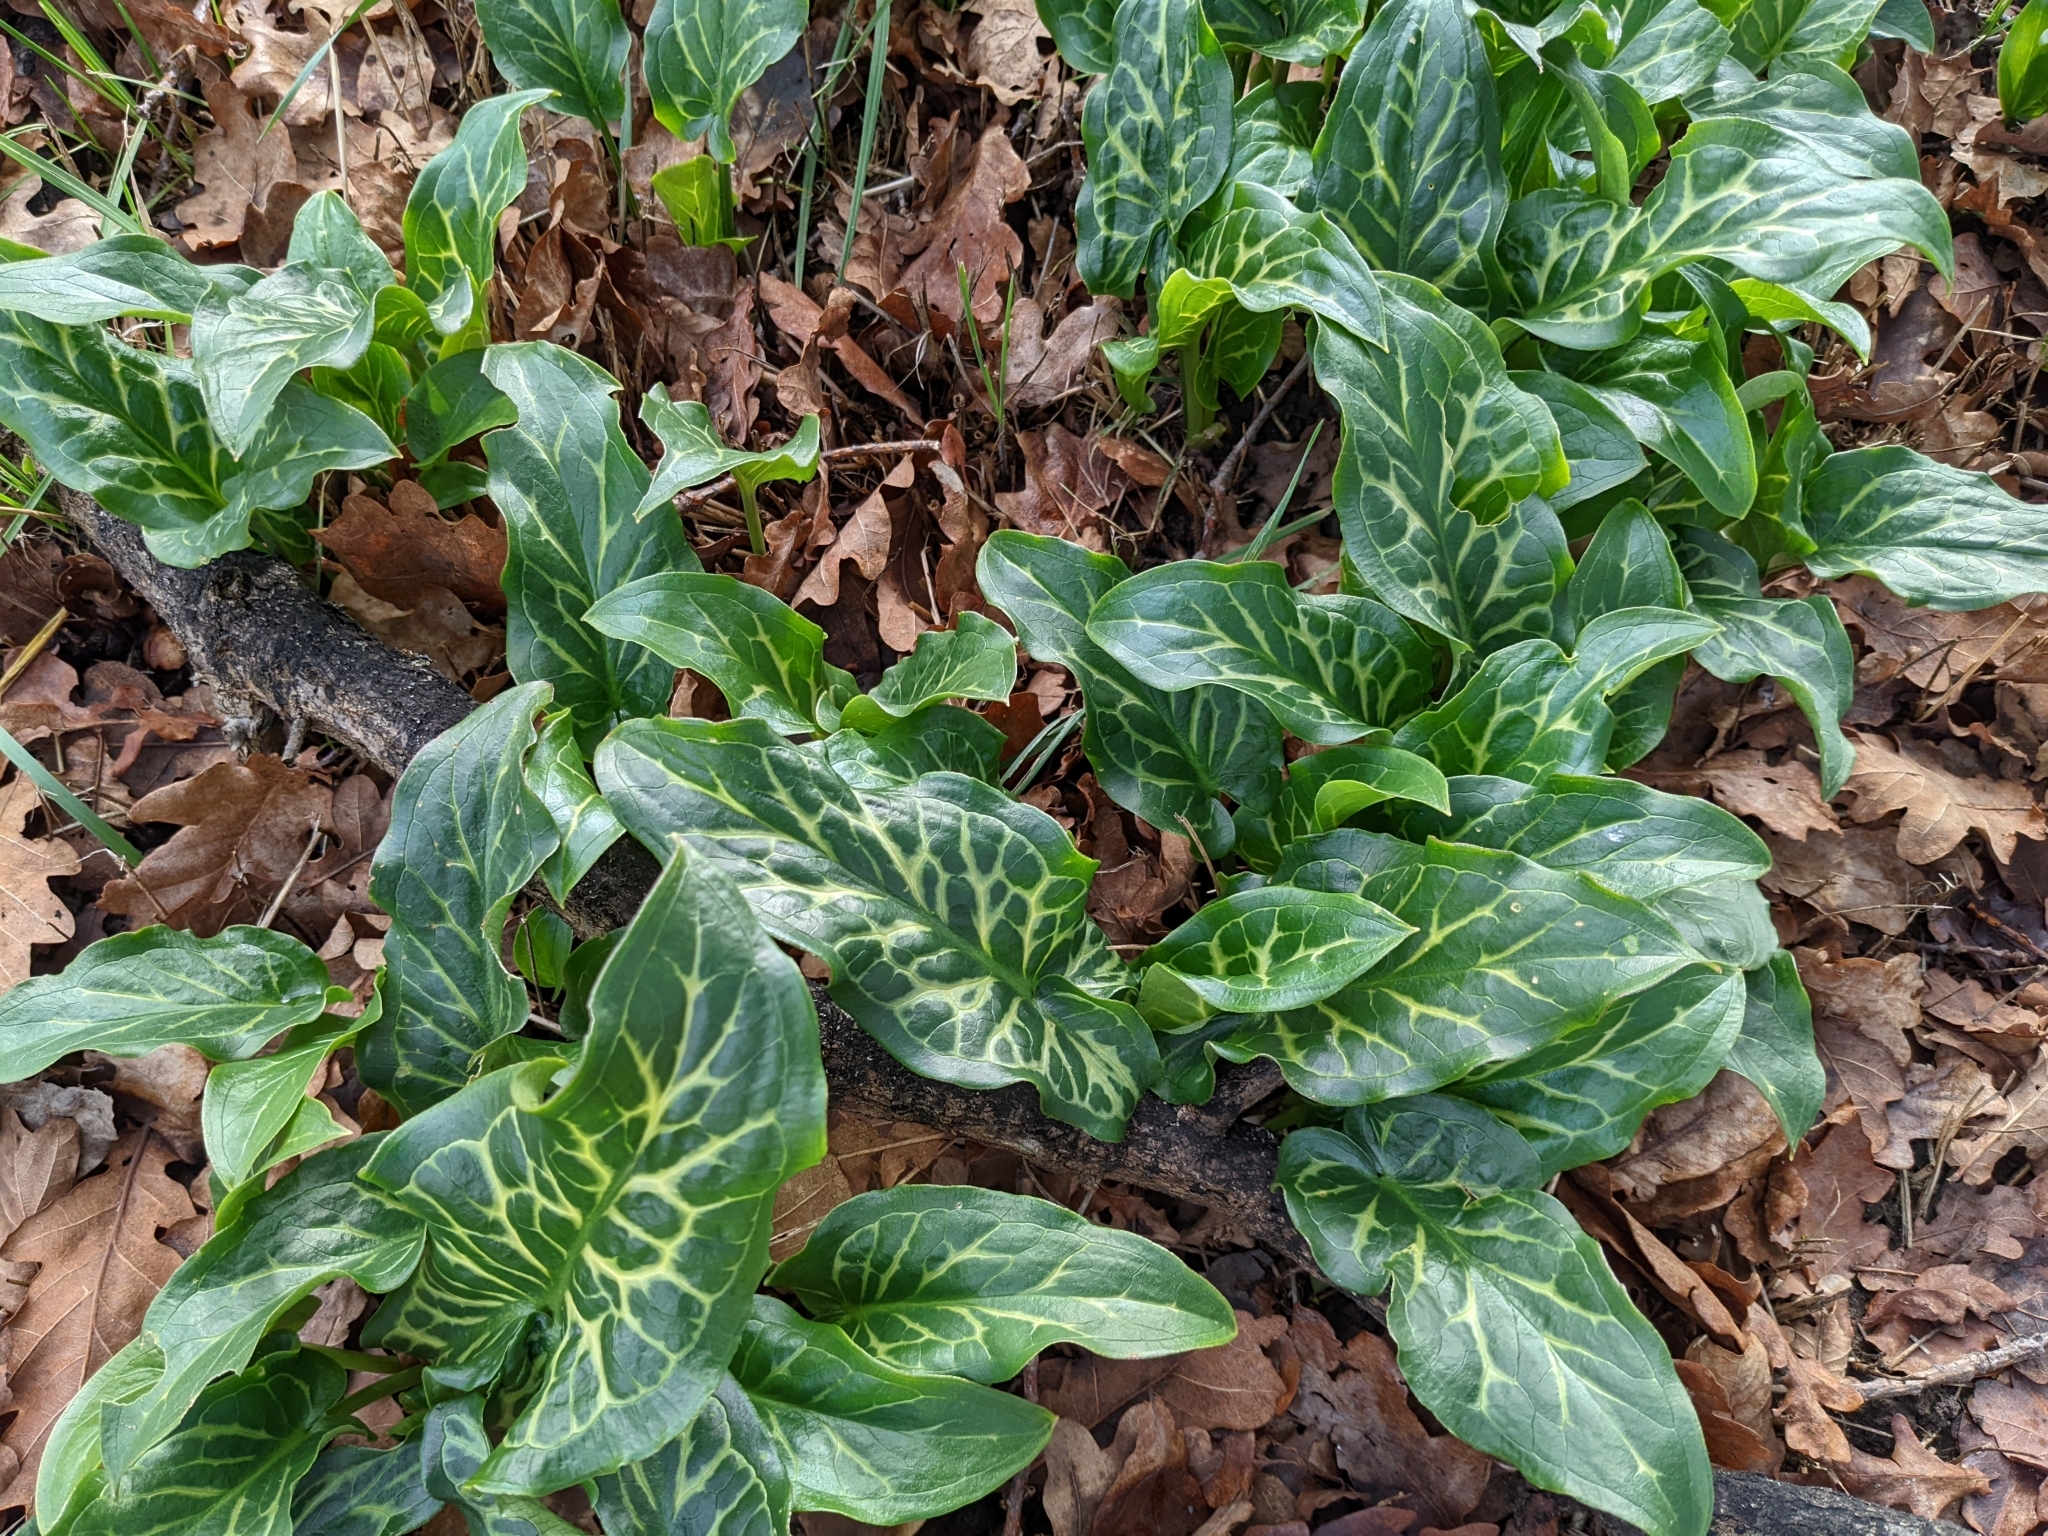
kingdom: Plantae
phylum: Tracheophyta
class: Liliopsida
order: Alismatales
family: Araceae
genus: Arum
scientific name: Arum italicum
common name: Italian lords-and-ladies
